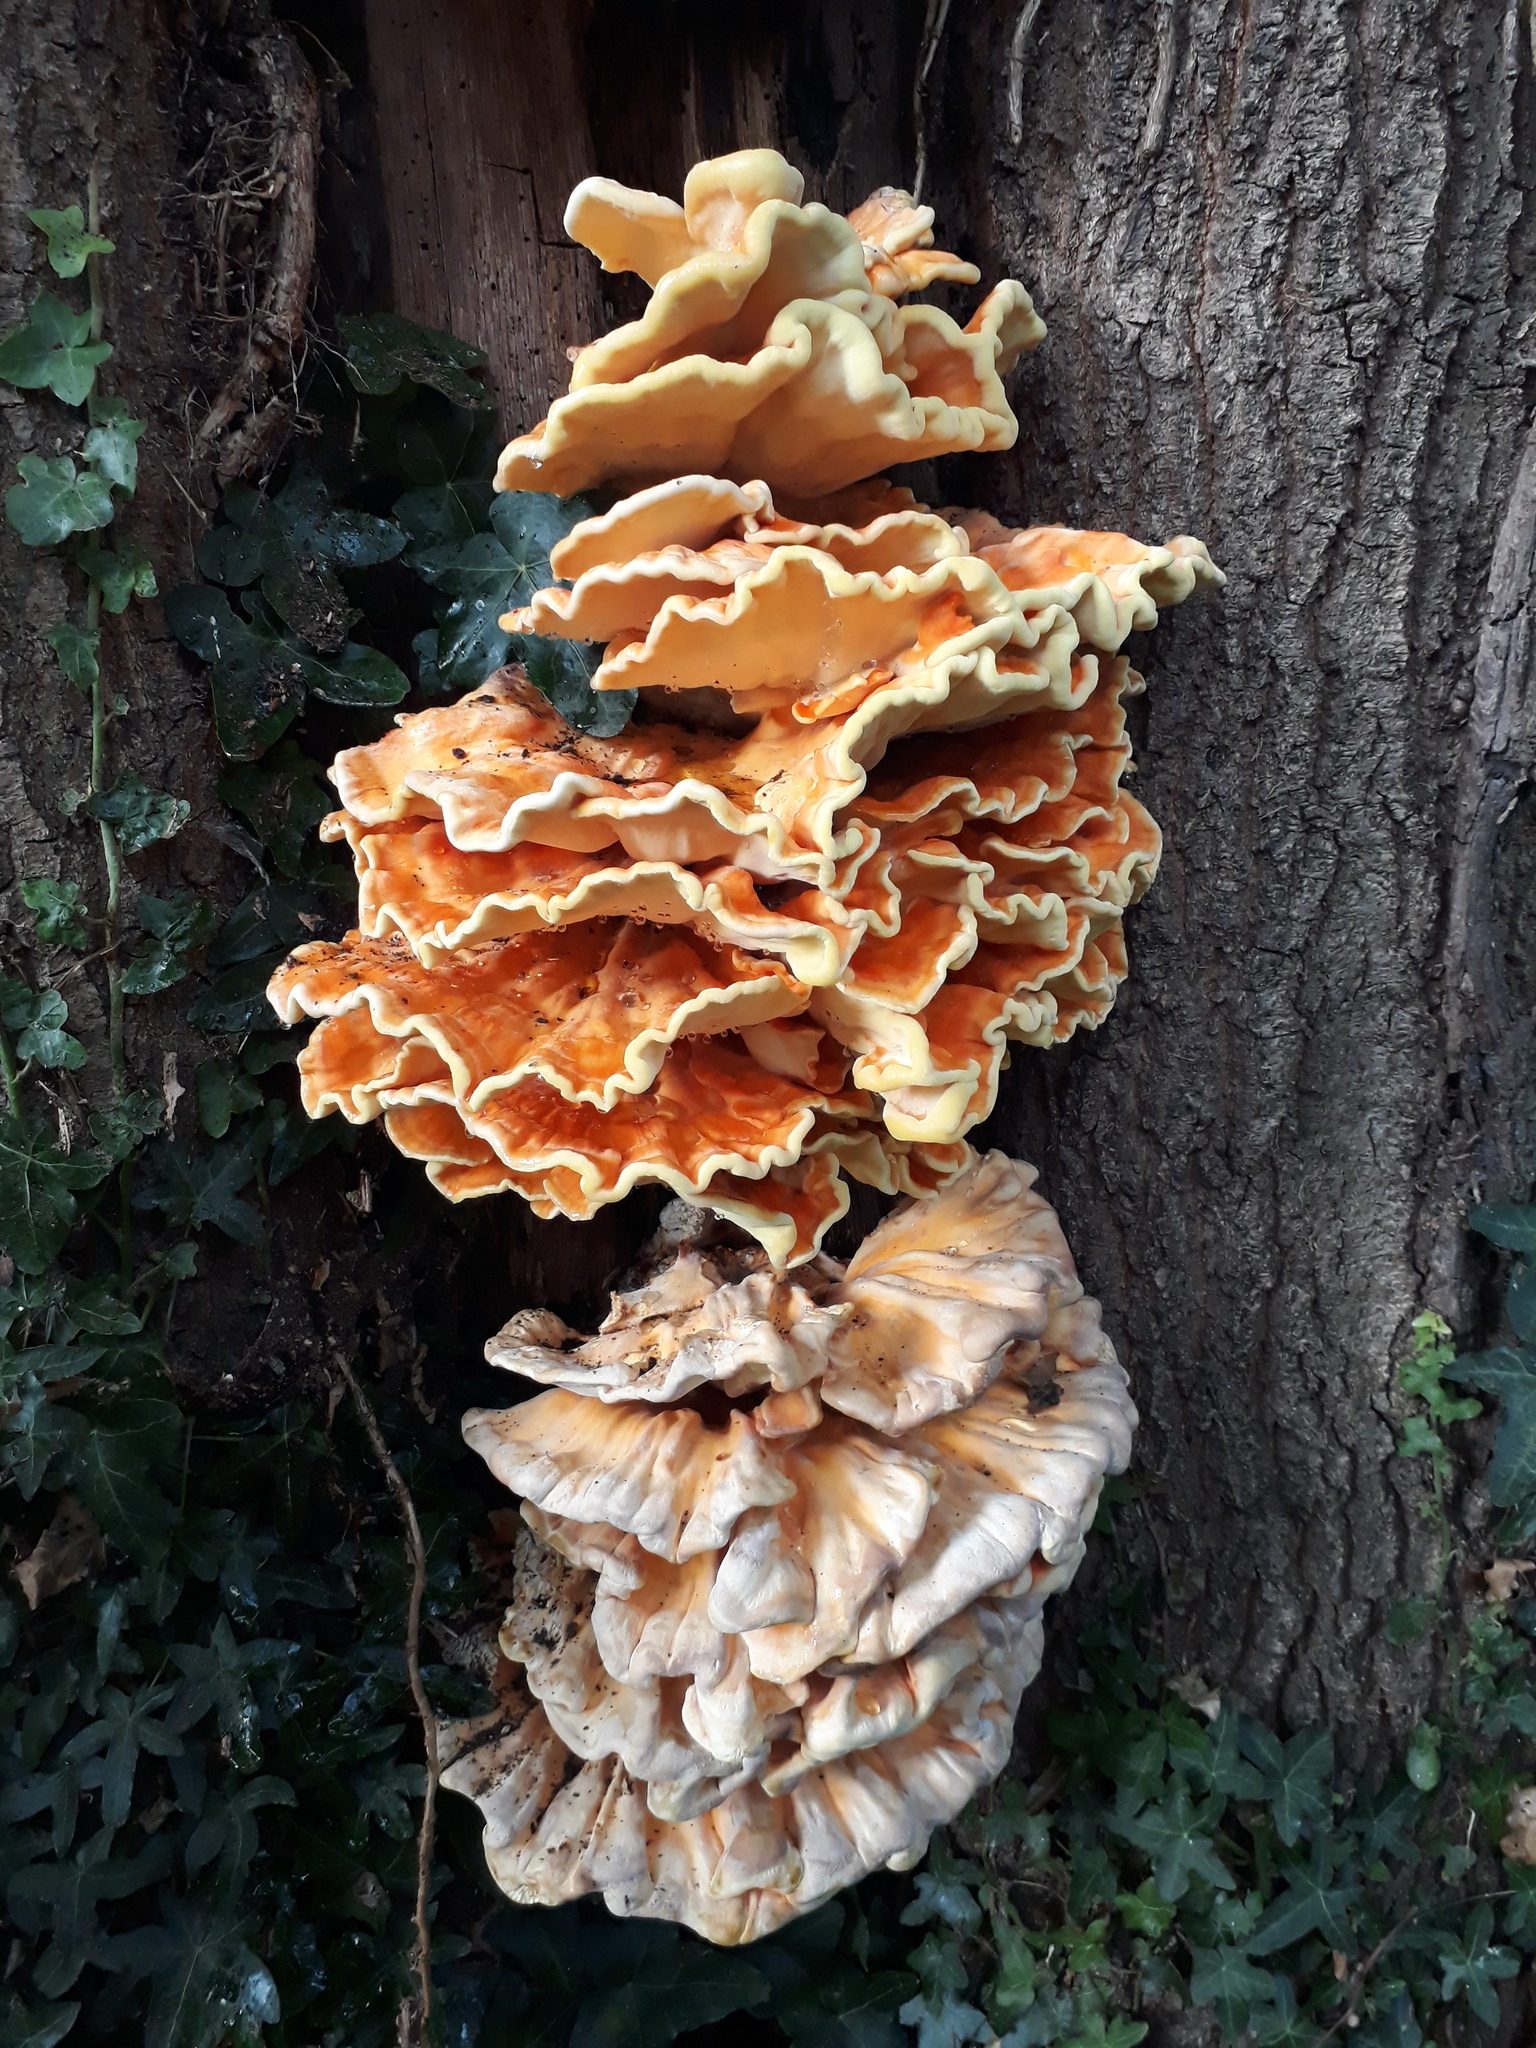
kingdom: Fungi
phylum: Basidiomycota
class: Agaricomycetes
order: Polyporales
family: Laetiporaceae
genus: Laetiporus
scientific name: Laetiporus sulphureus
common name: Chicken of the woods
